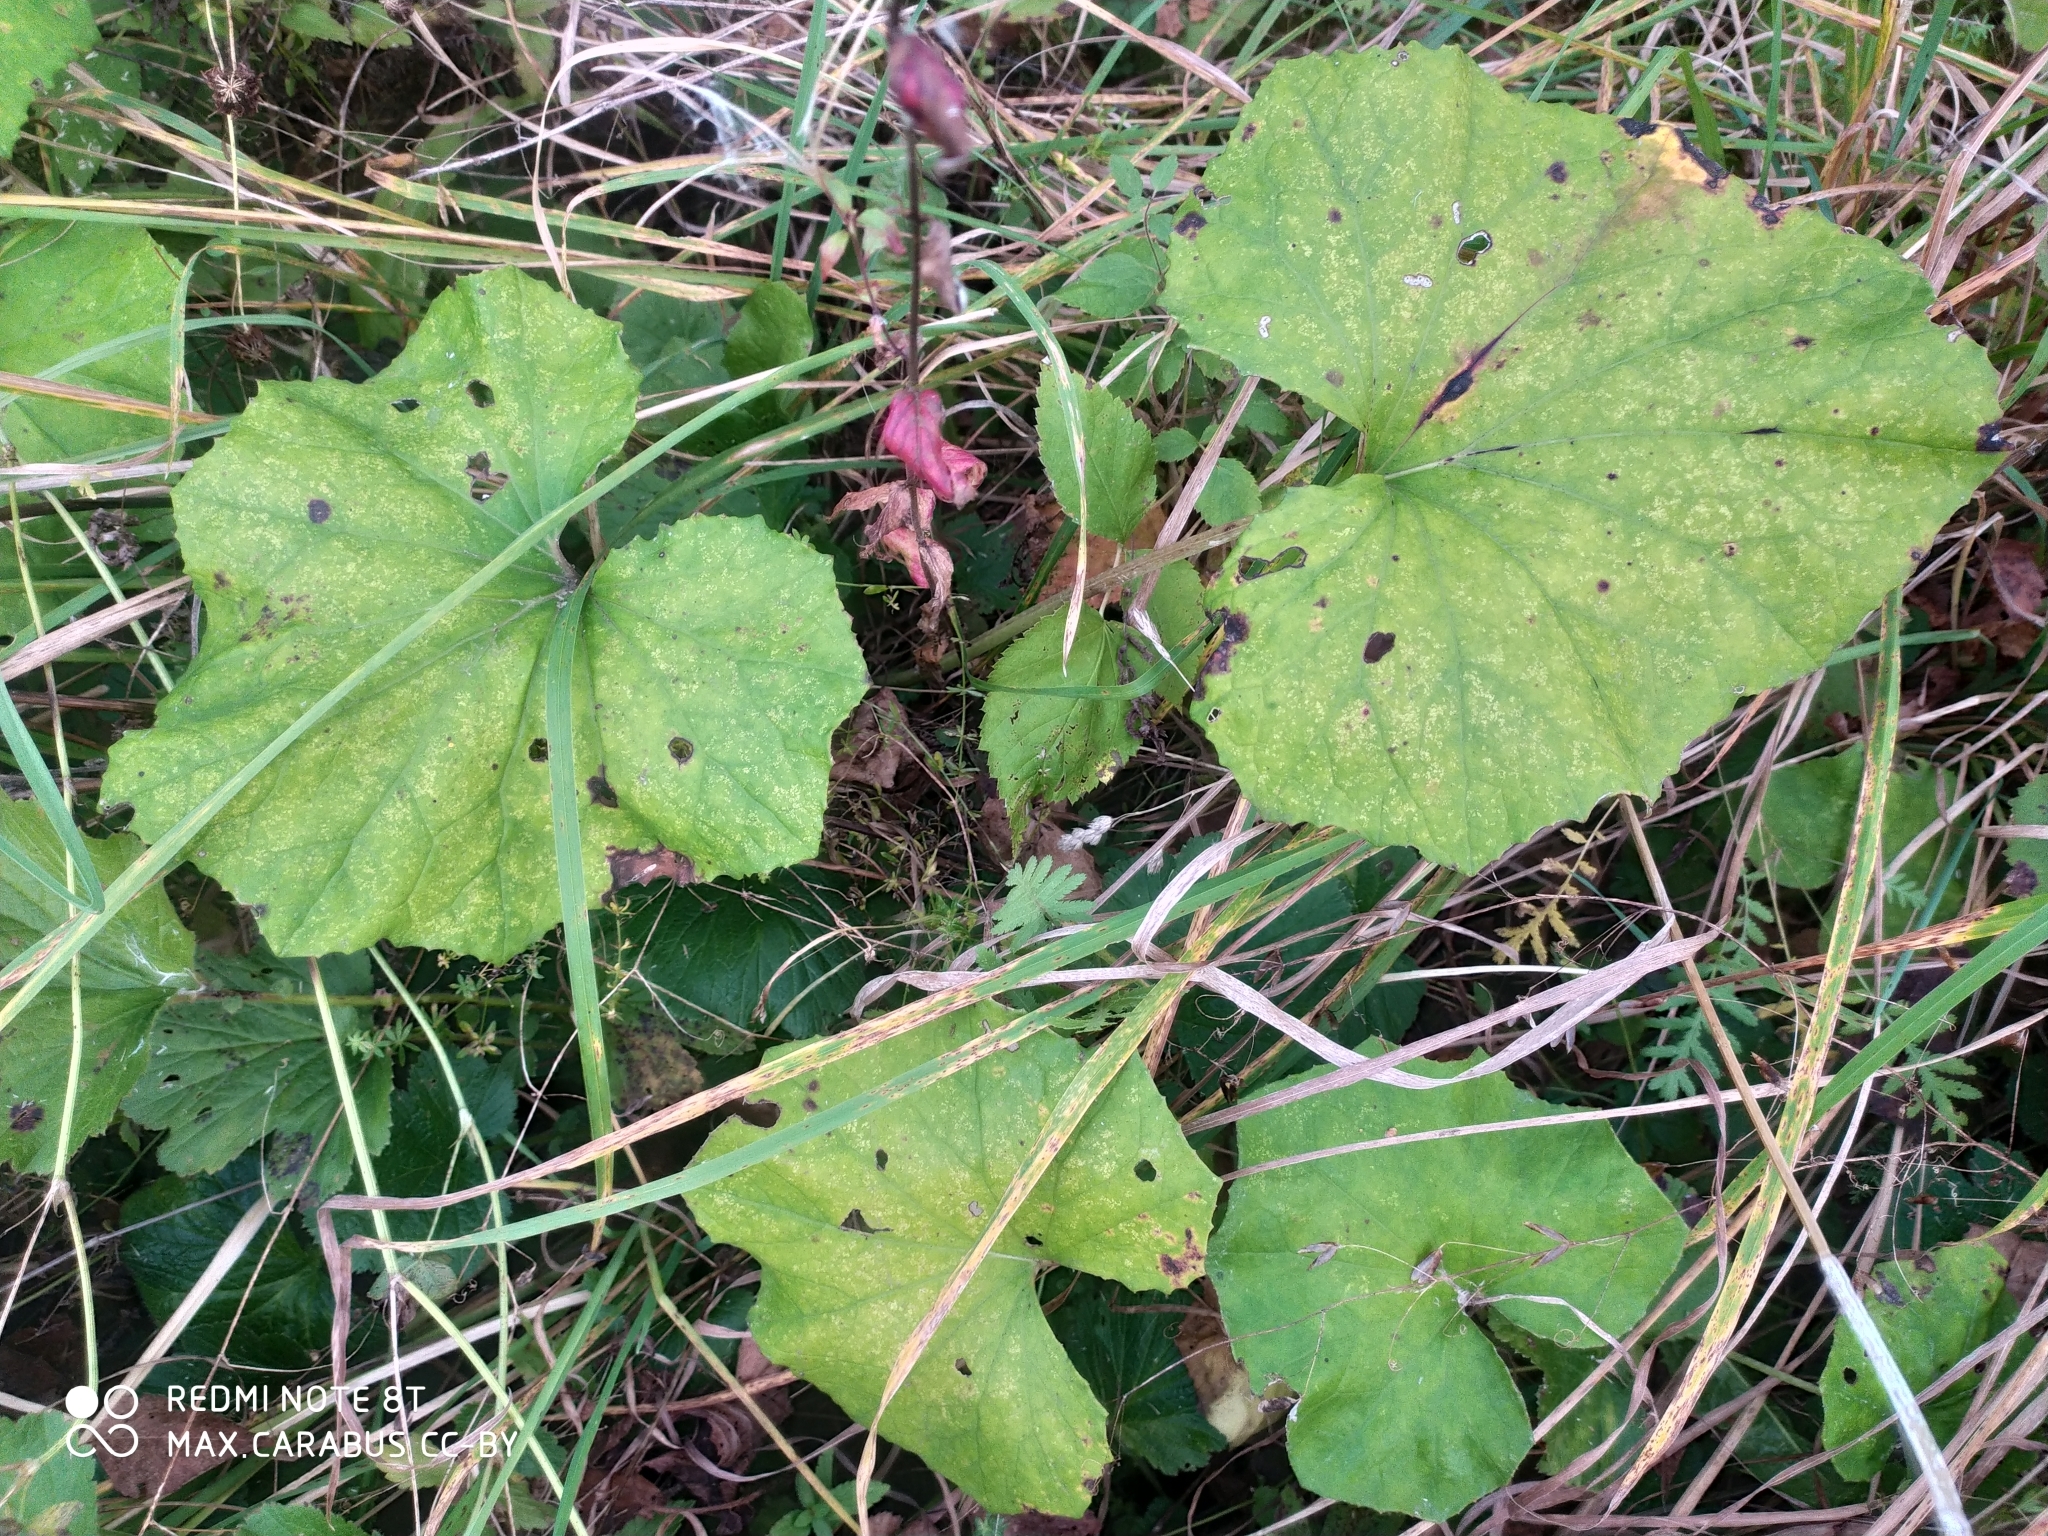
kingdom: Plantae
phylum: Tracheophyta
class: Magnoliopsida
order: Asterales
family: Asteraceae
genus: Tussilago
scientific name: Tussilago farfara
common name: Coltsfoot
